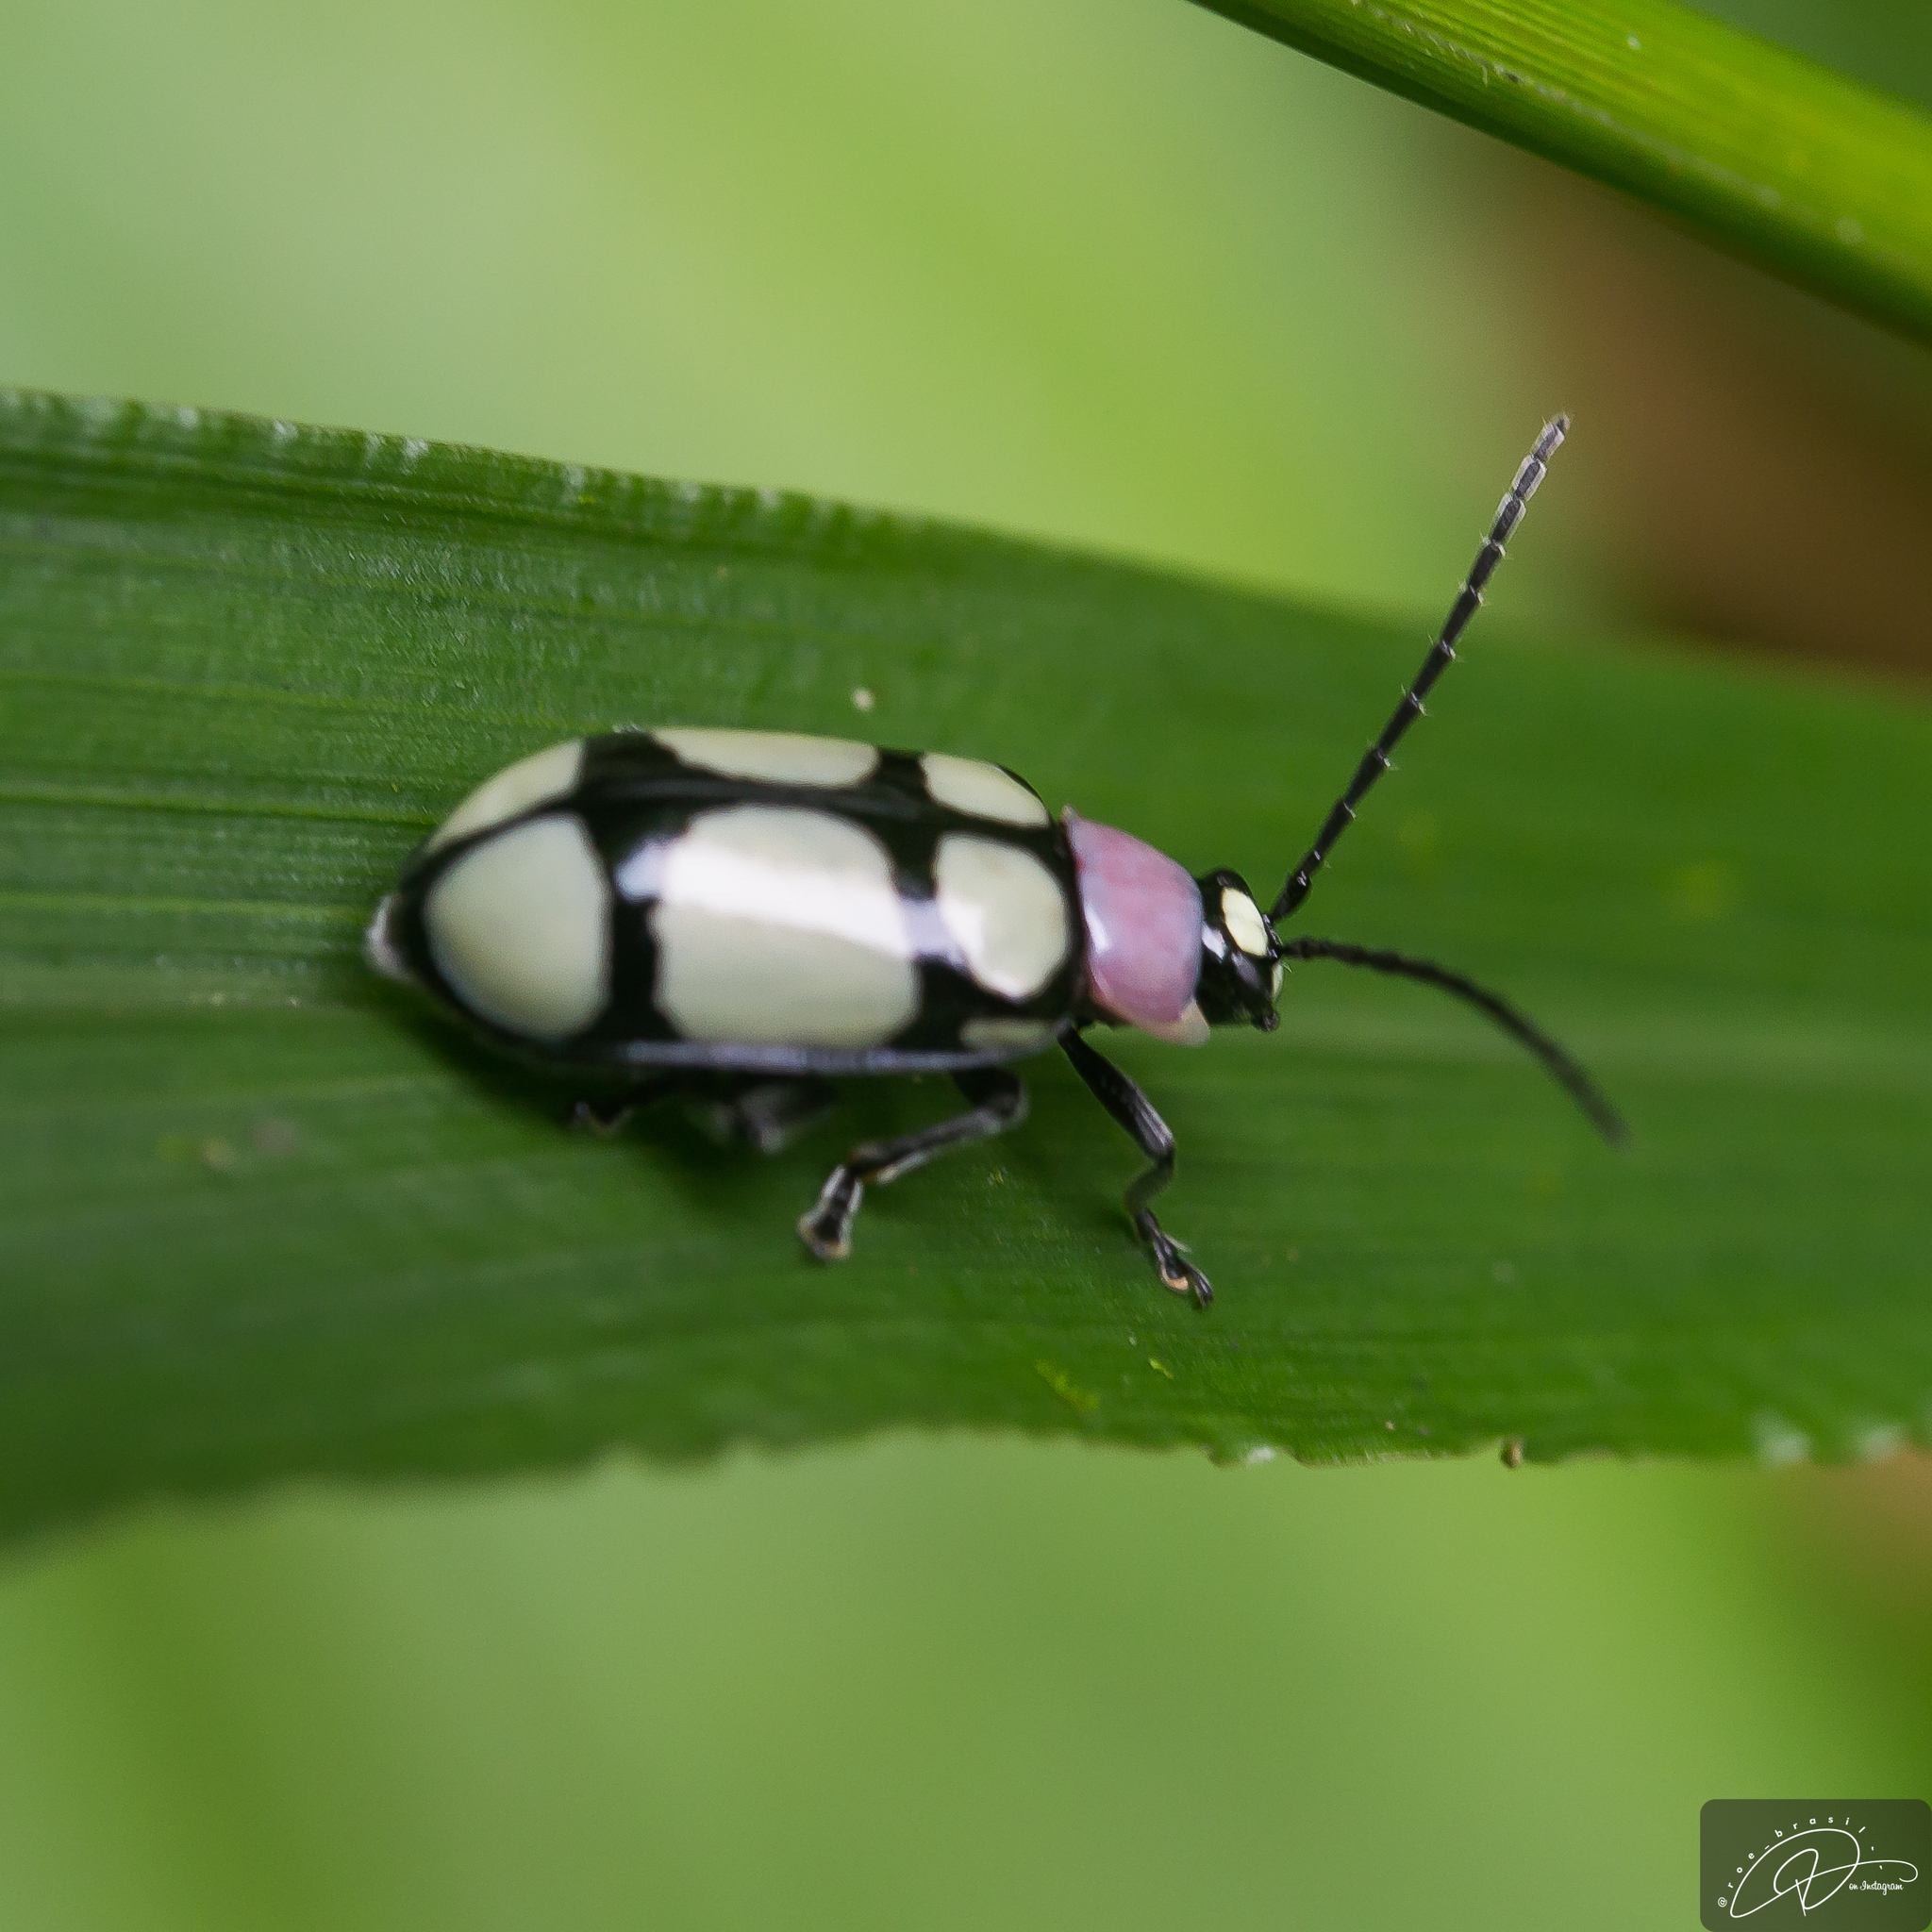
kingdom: Animalia
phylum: Arthropoda
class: Insecta
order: Coleoptera
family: Chrysomelidae
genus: Omophoita
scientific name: Omophoita
